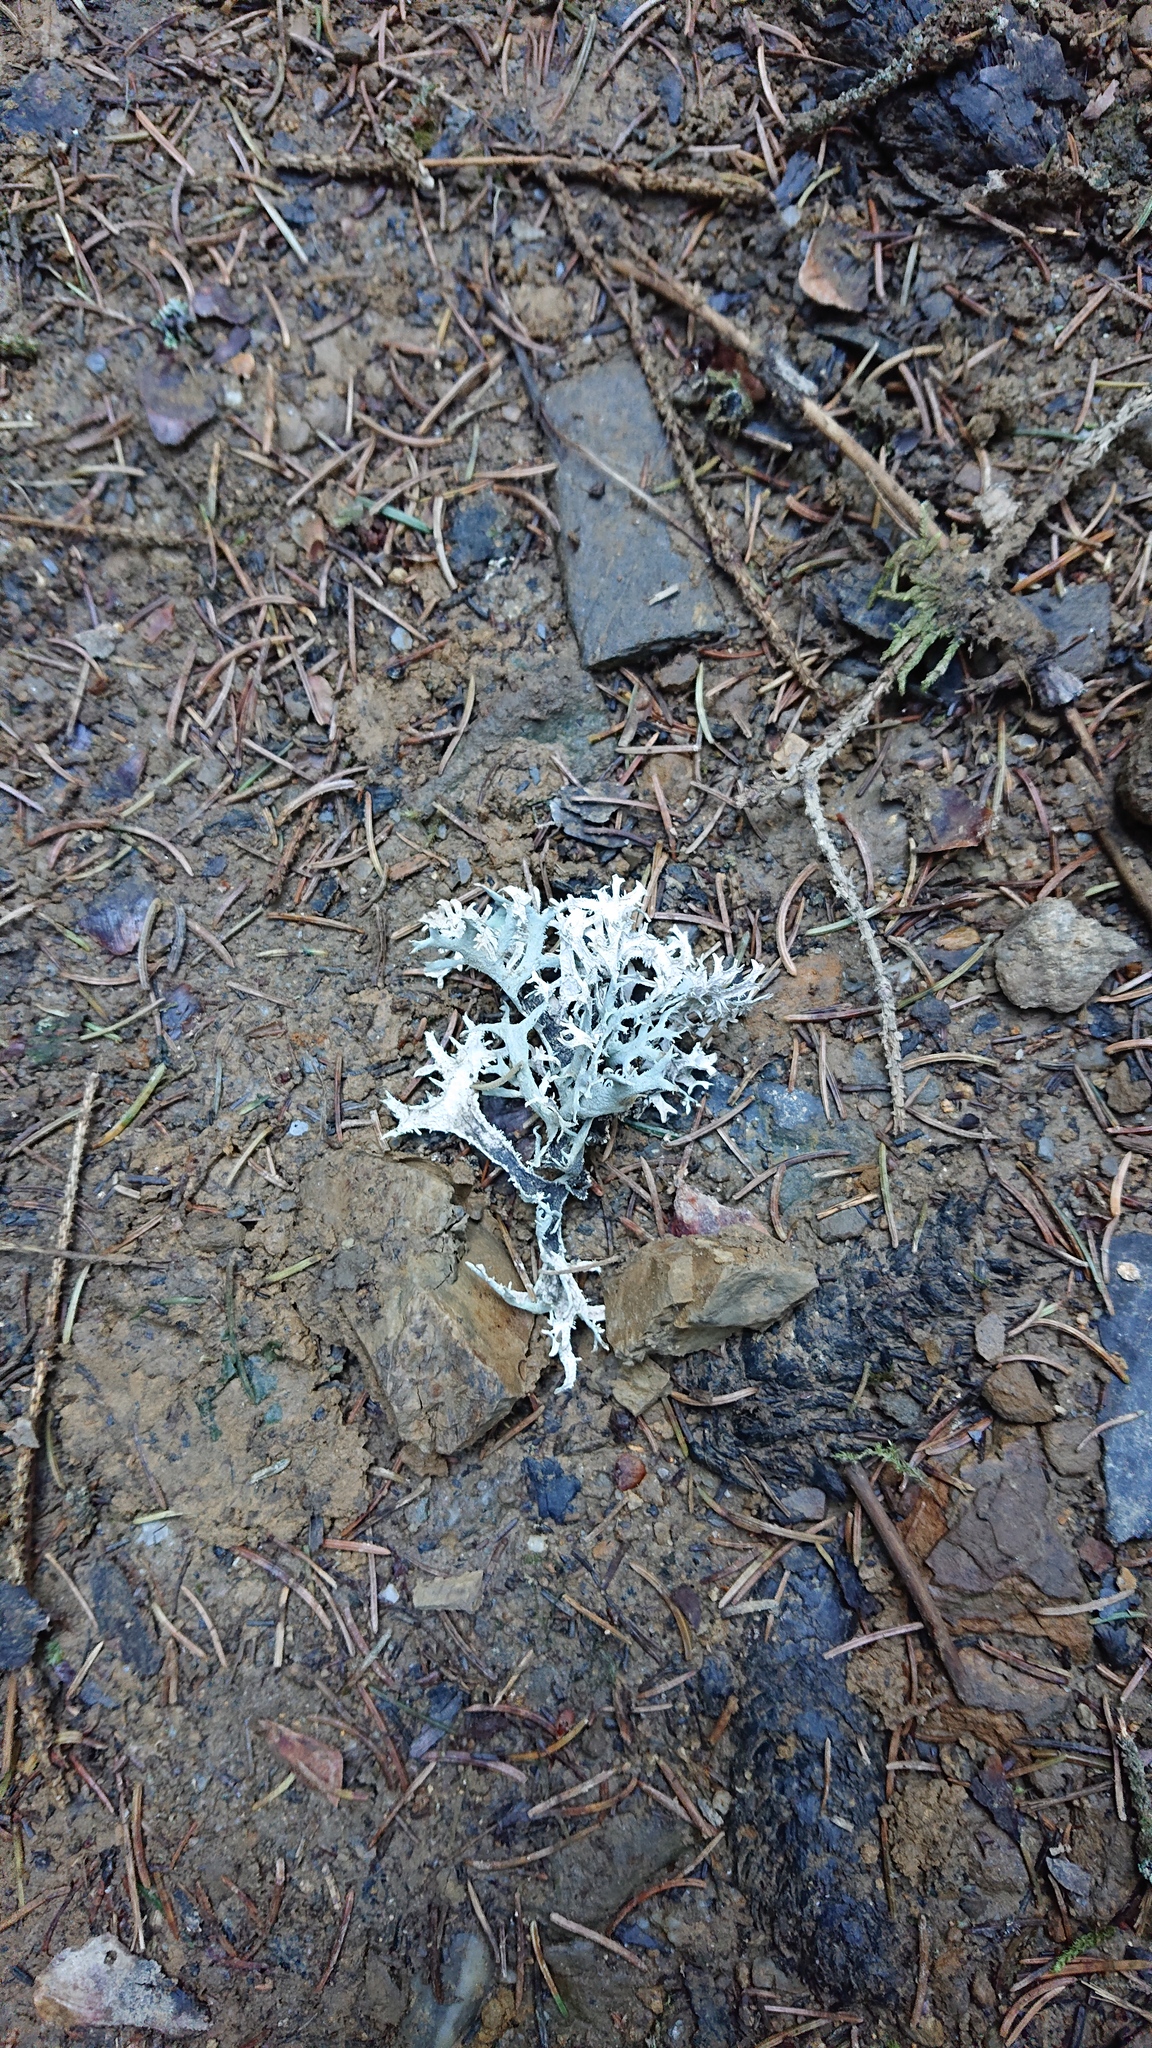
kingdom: Fungi
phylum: Ascomycota
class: Lecanoromycetes
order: Lecanorales
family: Parmeliaceae
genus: Pseudevernia
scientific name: Pseudevernia furfuracea
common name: Tree moss
